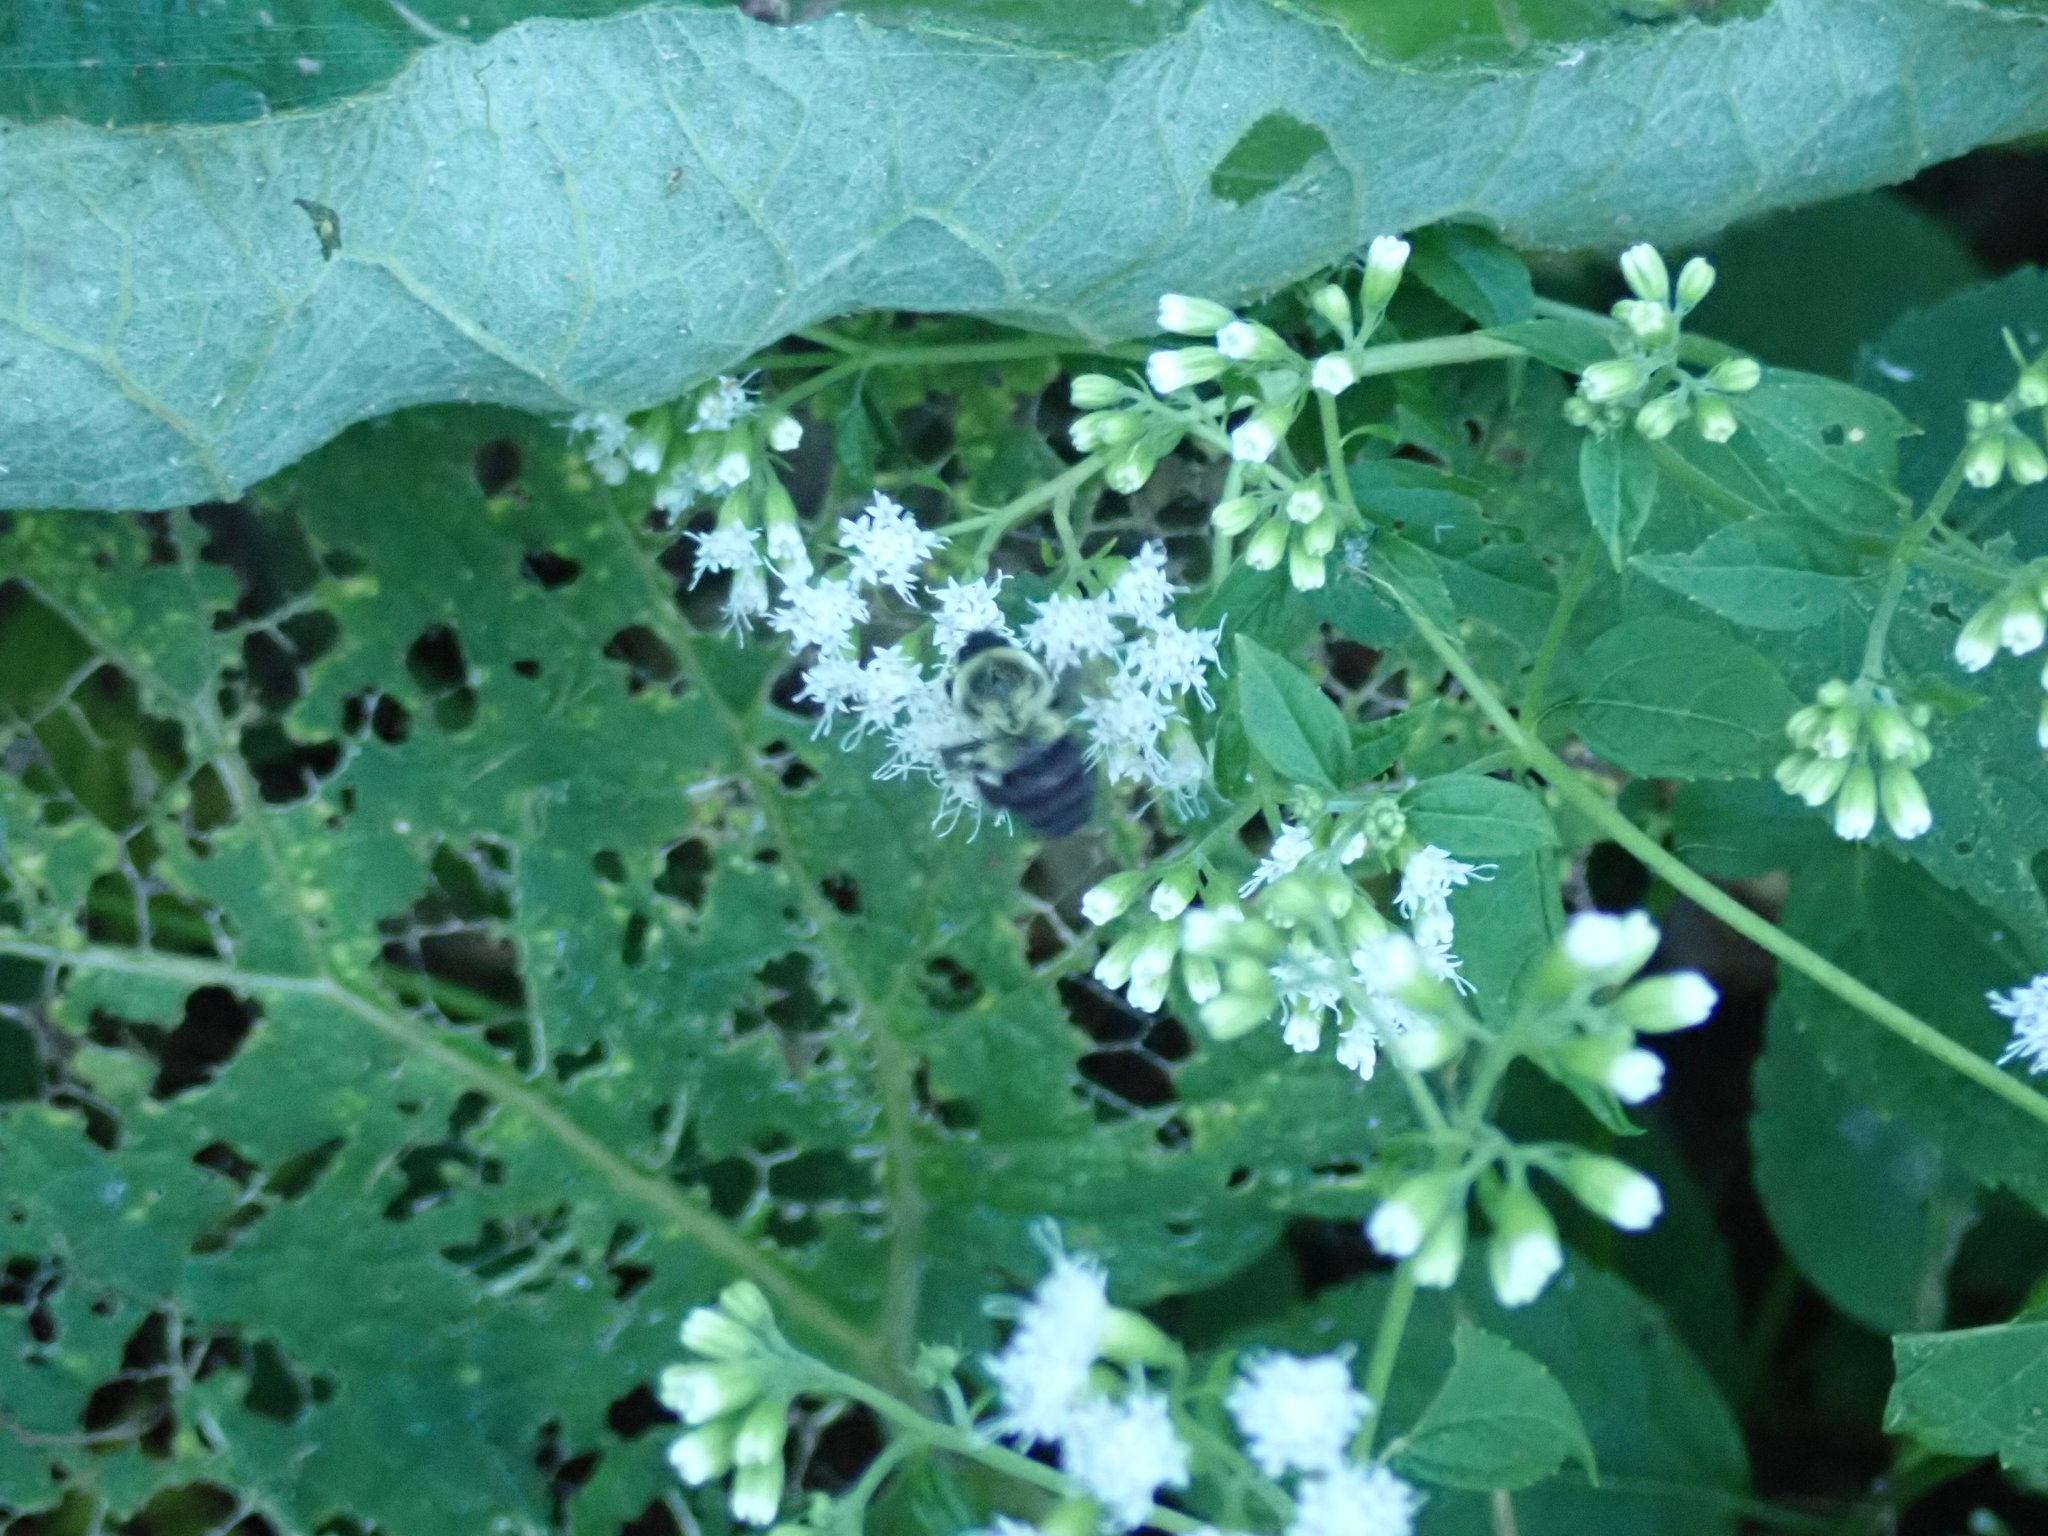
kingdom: Animalia
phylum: Arthropoda
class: Insecta
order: Hymenoptera
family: Apidae
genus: Bombus
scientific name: Bombus impatiens
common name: Common eastern bumble bee
